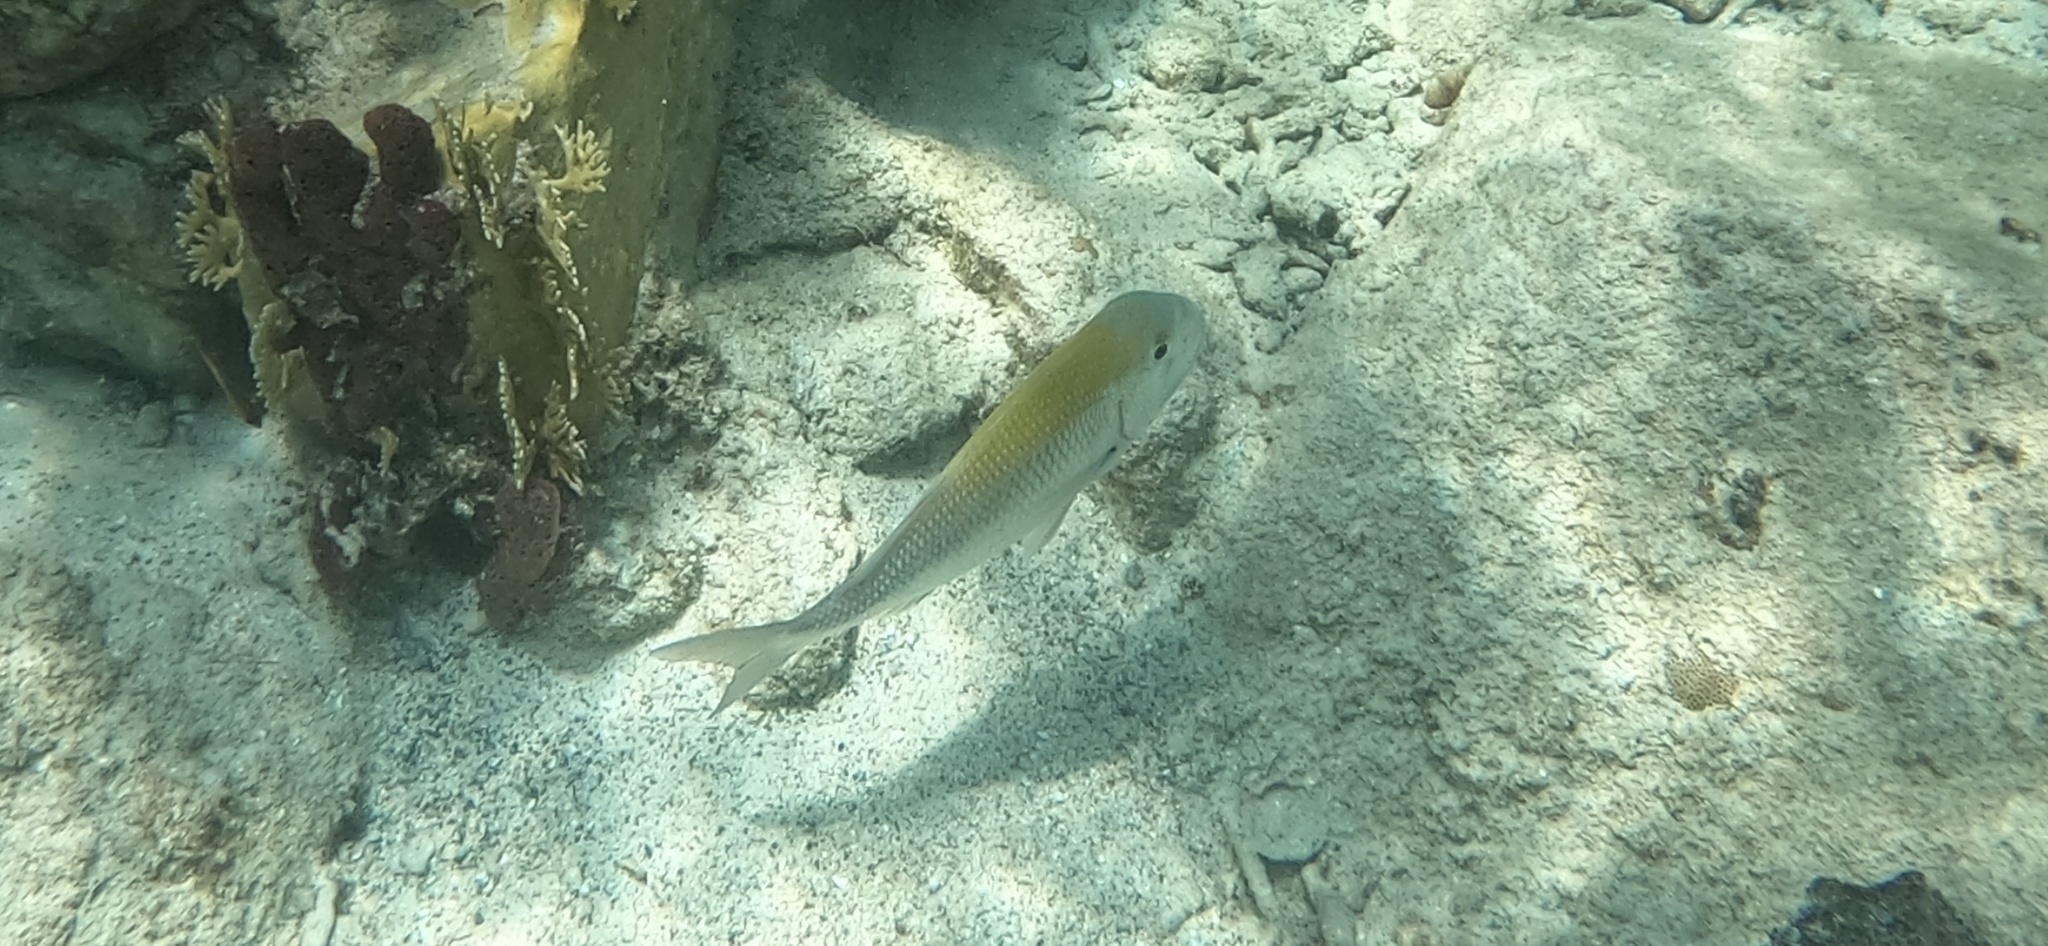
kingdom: Animalia
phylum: Chordata
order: Perciformes
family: Sparidae
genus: Calamus
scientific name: Calamus penna
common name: Sheepshead porgy
